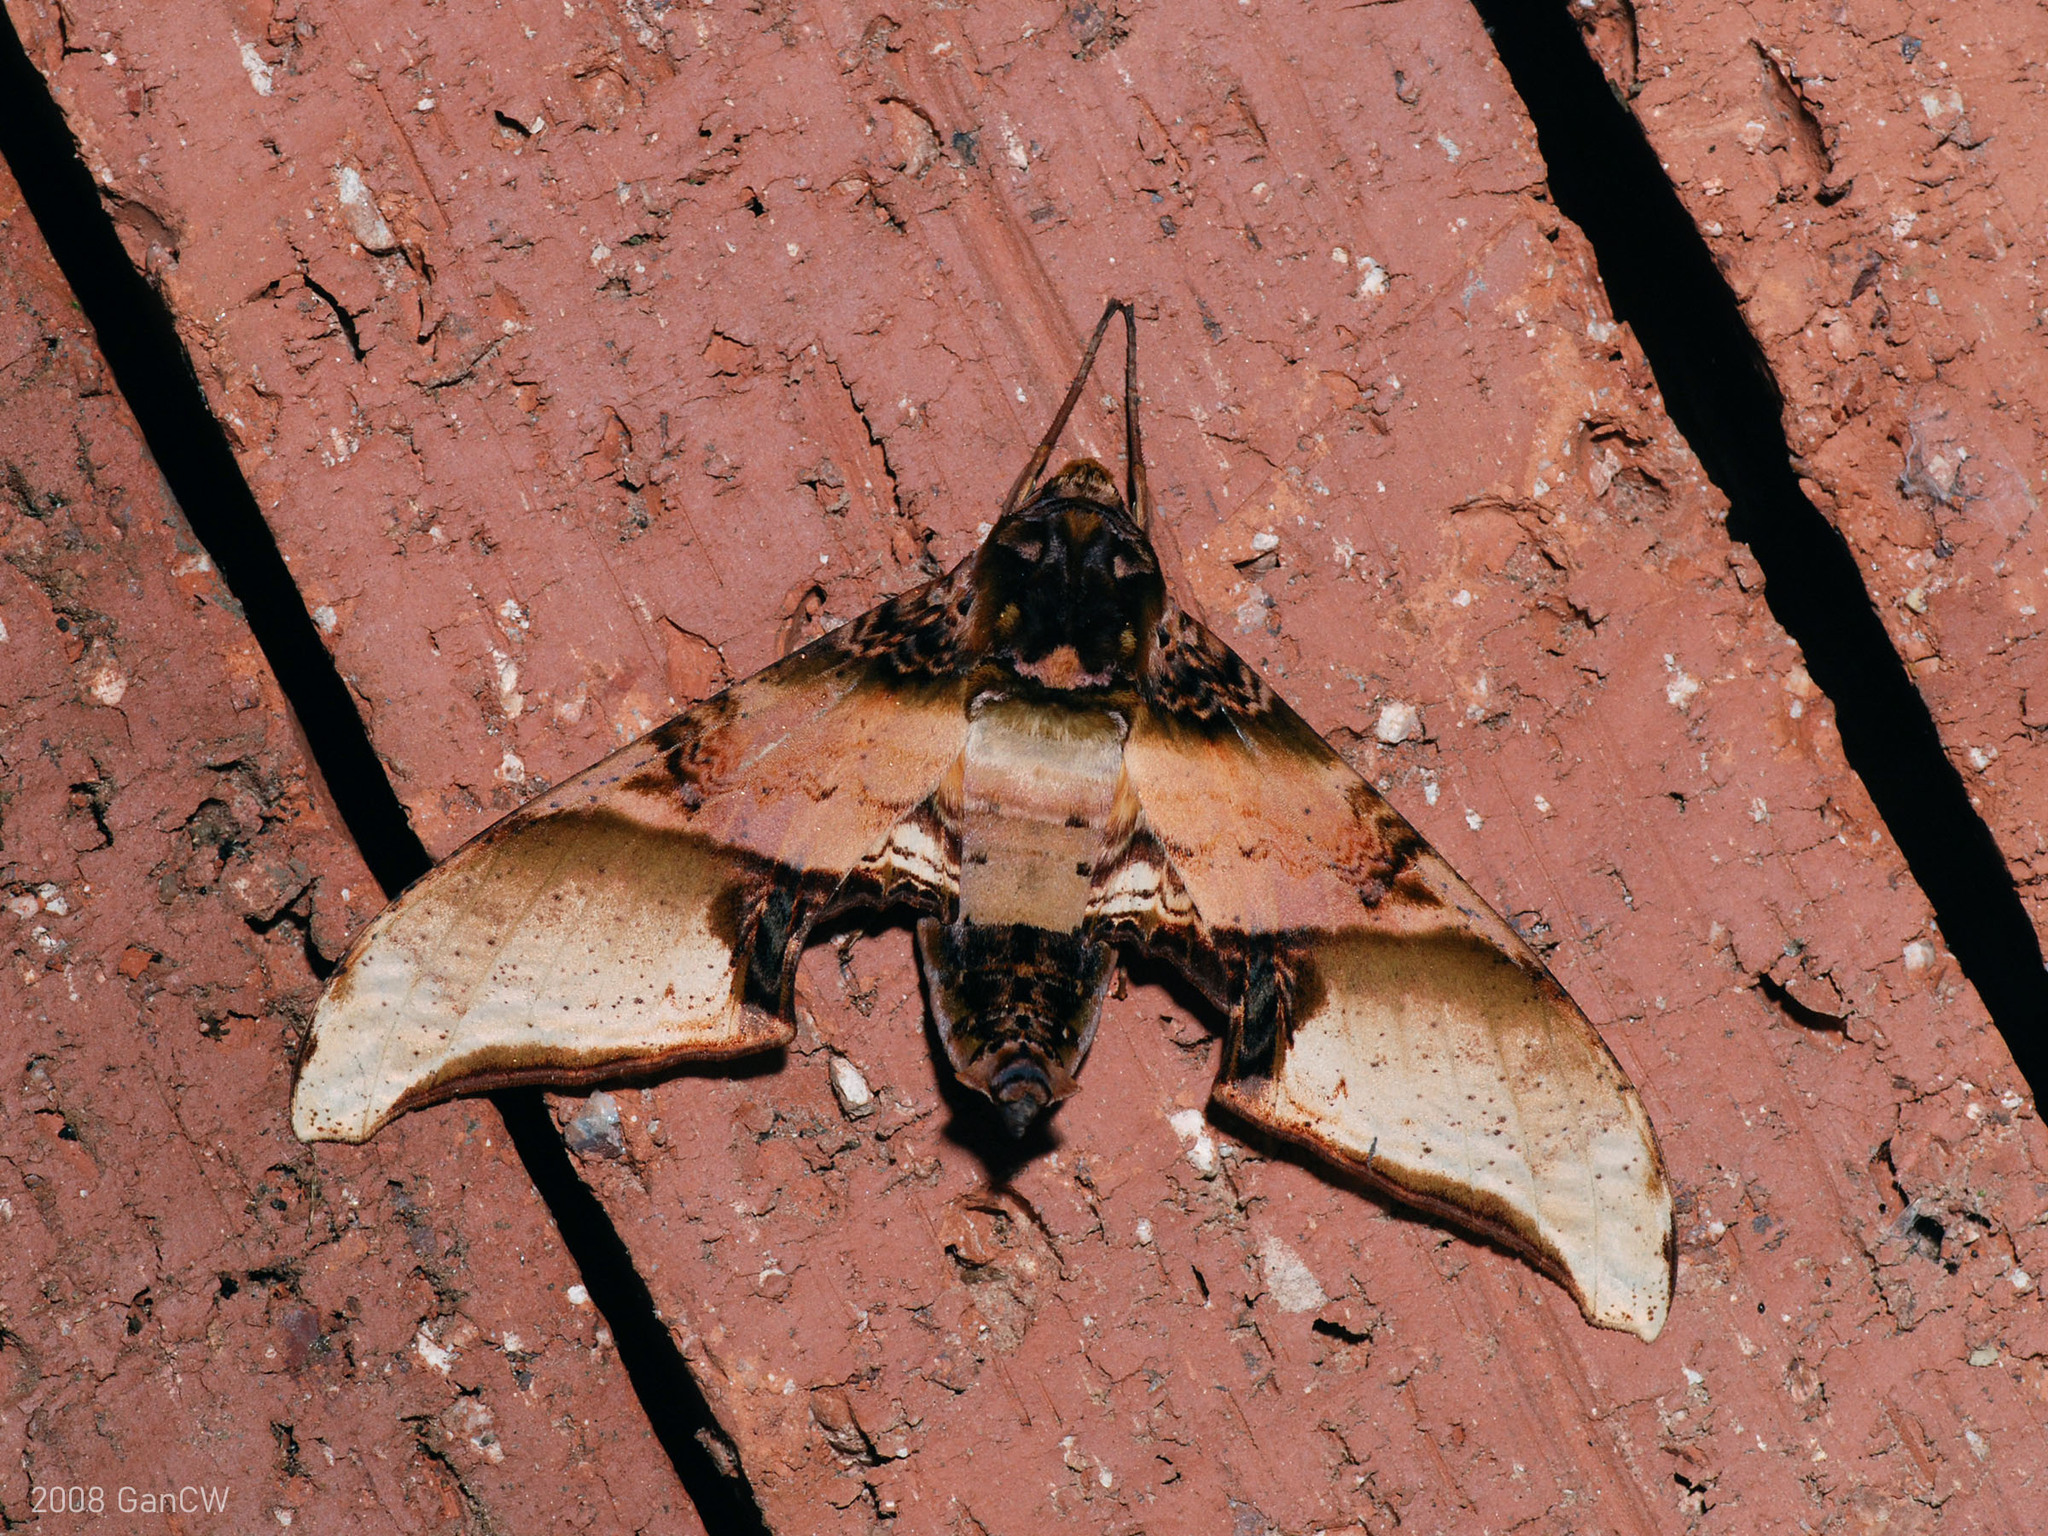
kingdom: Animalia
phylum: Arthropoda
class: Insecta
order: Lepidoptera
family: Sphingidae
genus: Amplypterus
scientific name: Amplypterus mansoni
